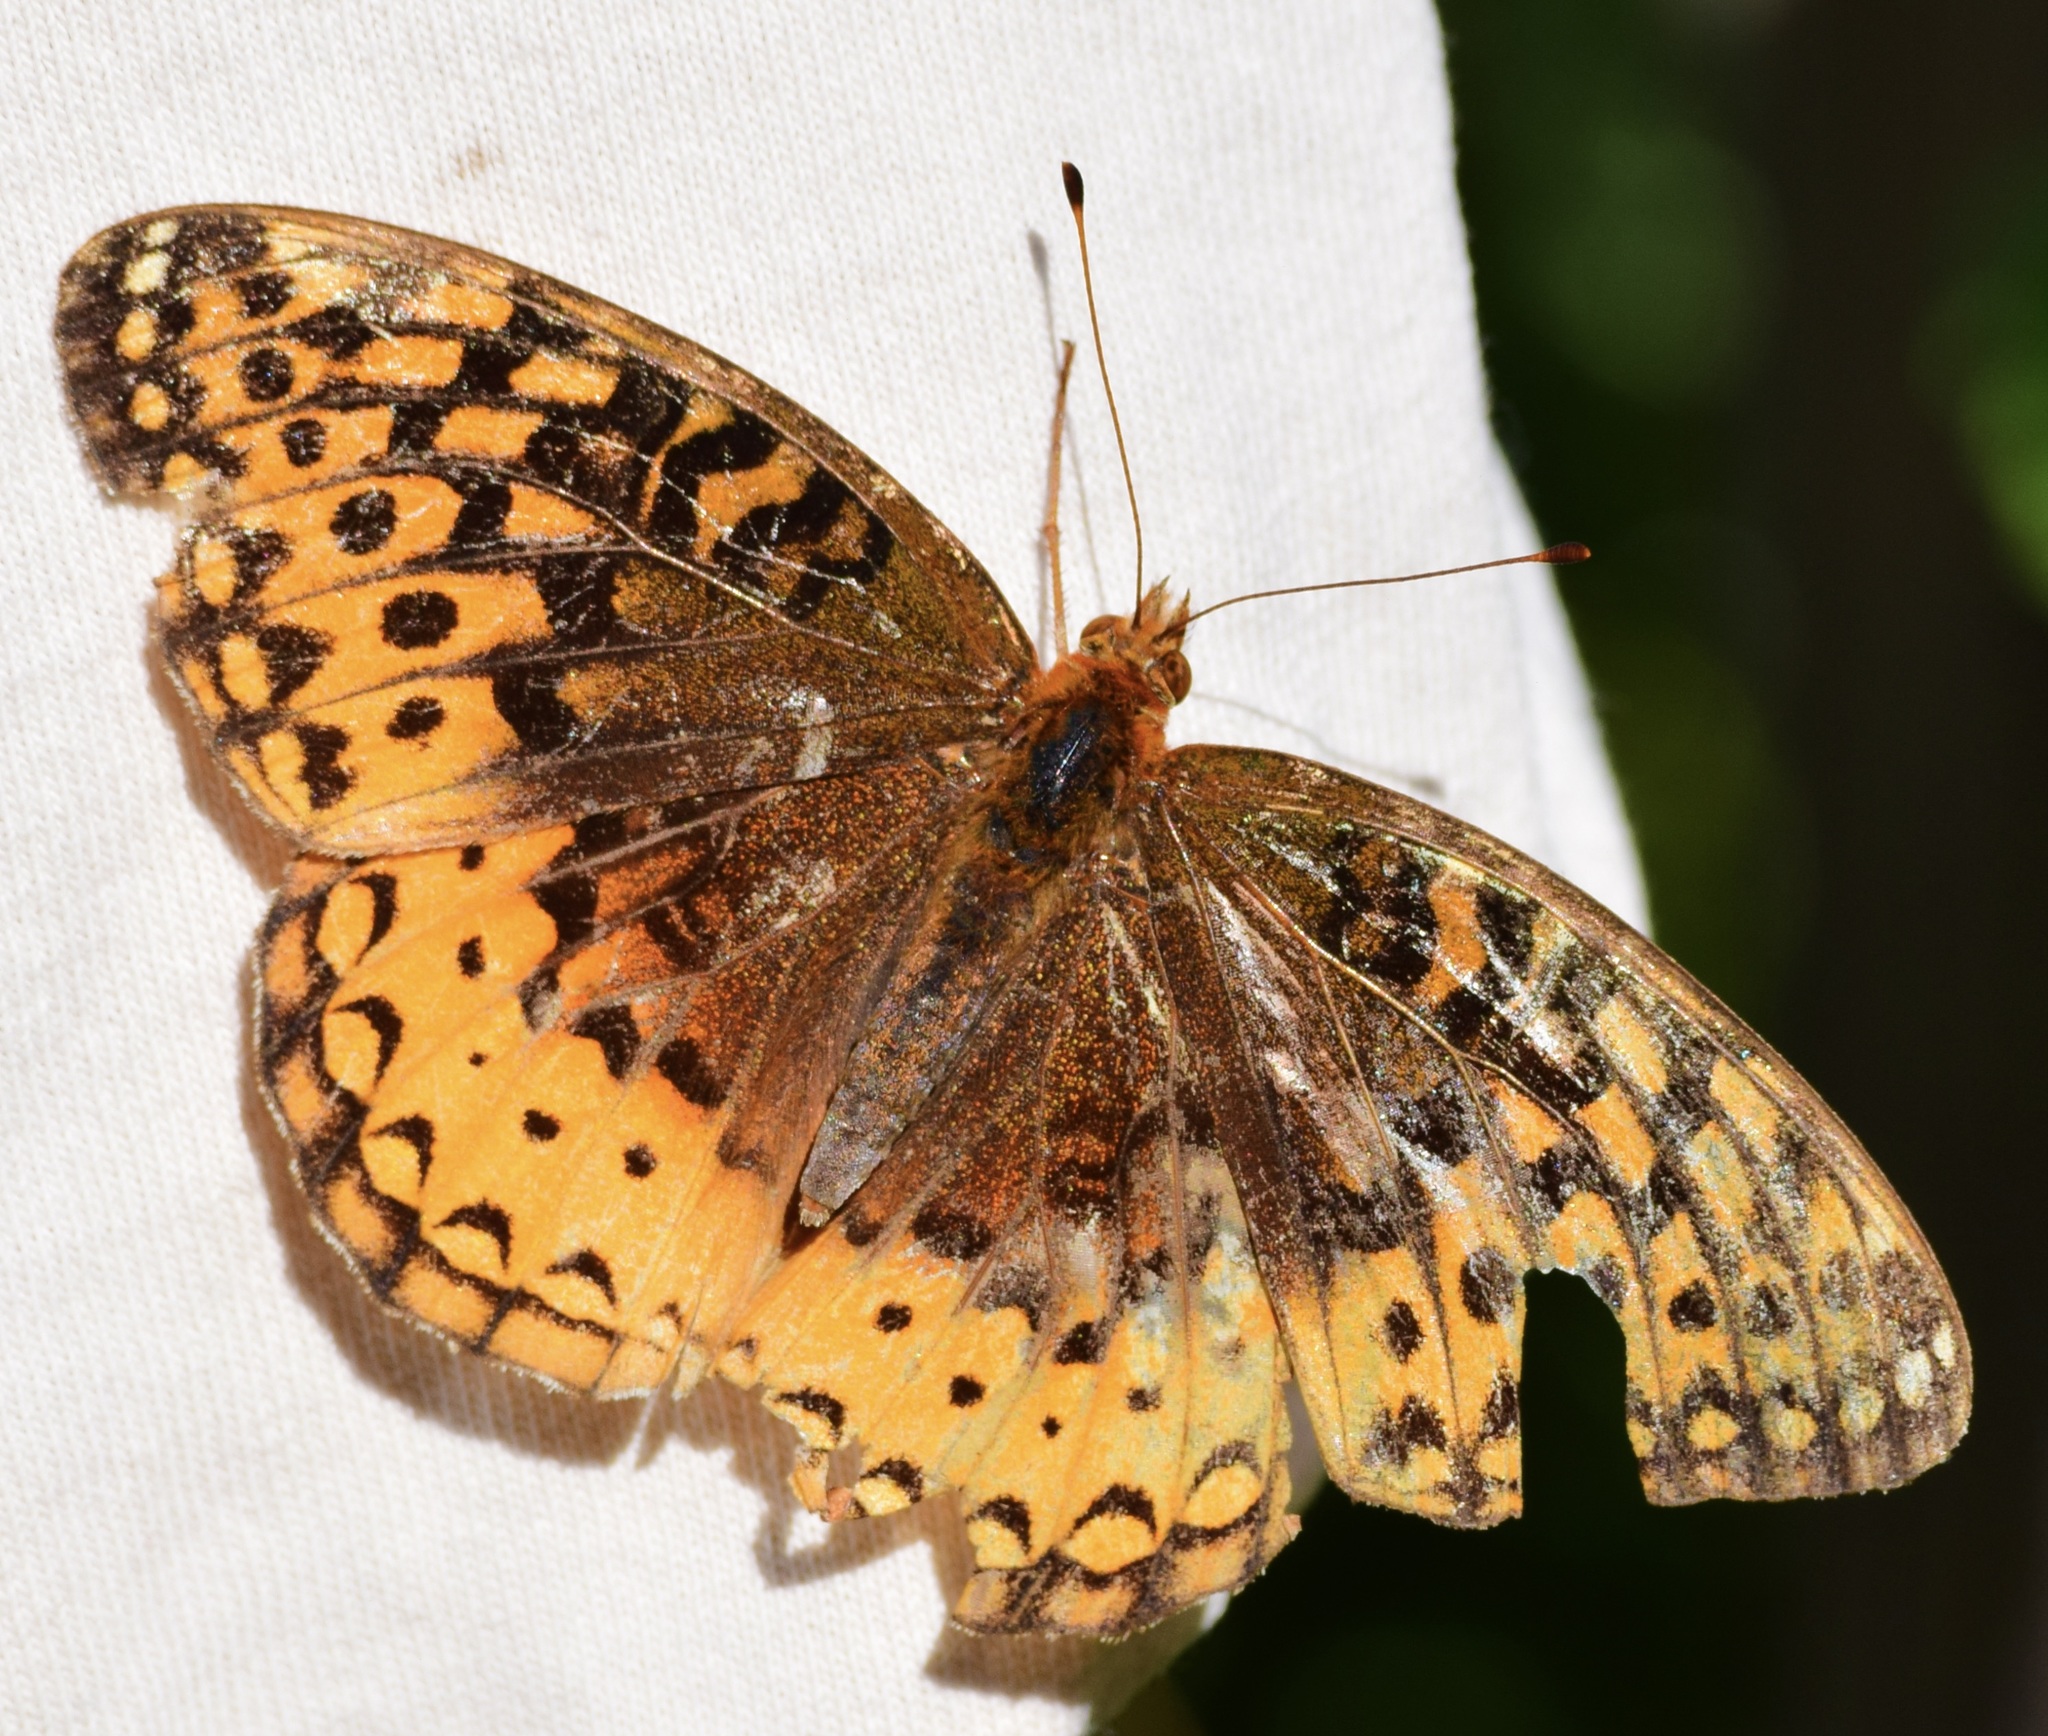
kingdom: Animalia
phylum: Arthropoda
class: Insecta
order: Lepidoptera
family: Nymphalidae
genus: Speyeria
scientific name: Speyeria cybele
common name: Great spangled fritillary
